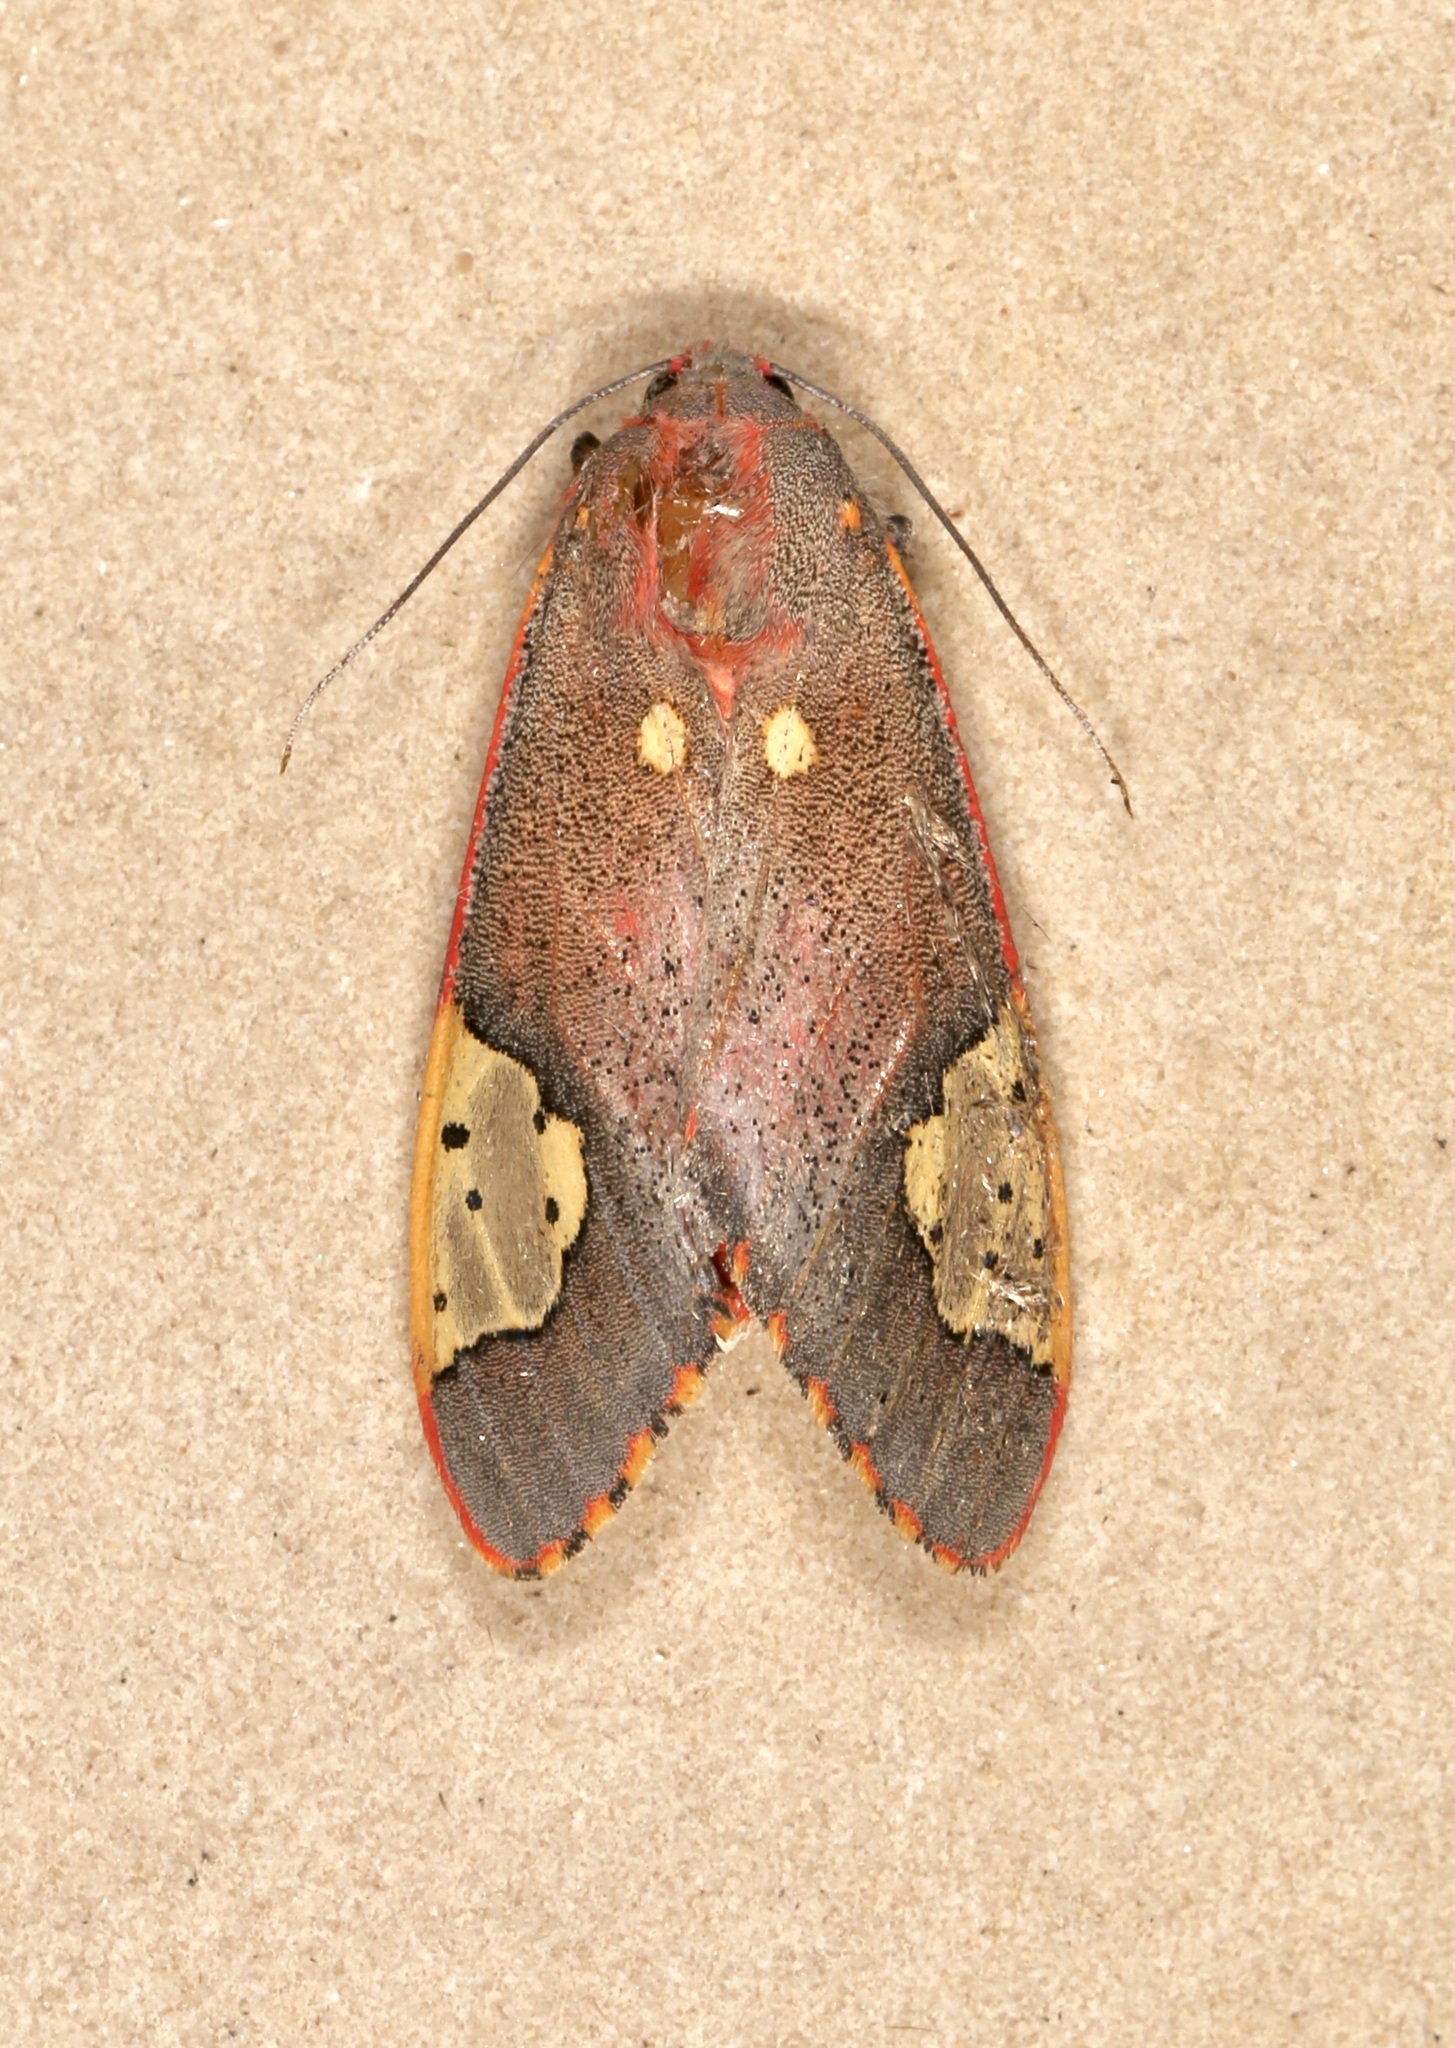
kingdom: Animalia
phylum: Arthropoda
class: Insecta
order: Lepidoptera
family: Erebidae
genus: Bertholdia
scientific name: Bertholdia trigona
